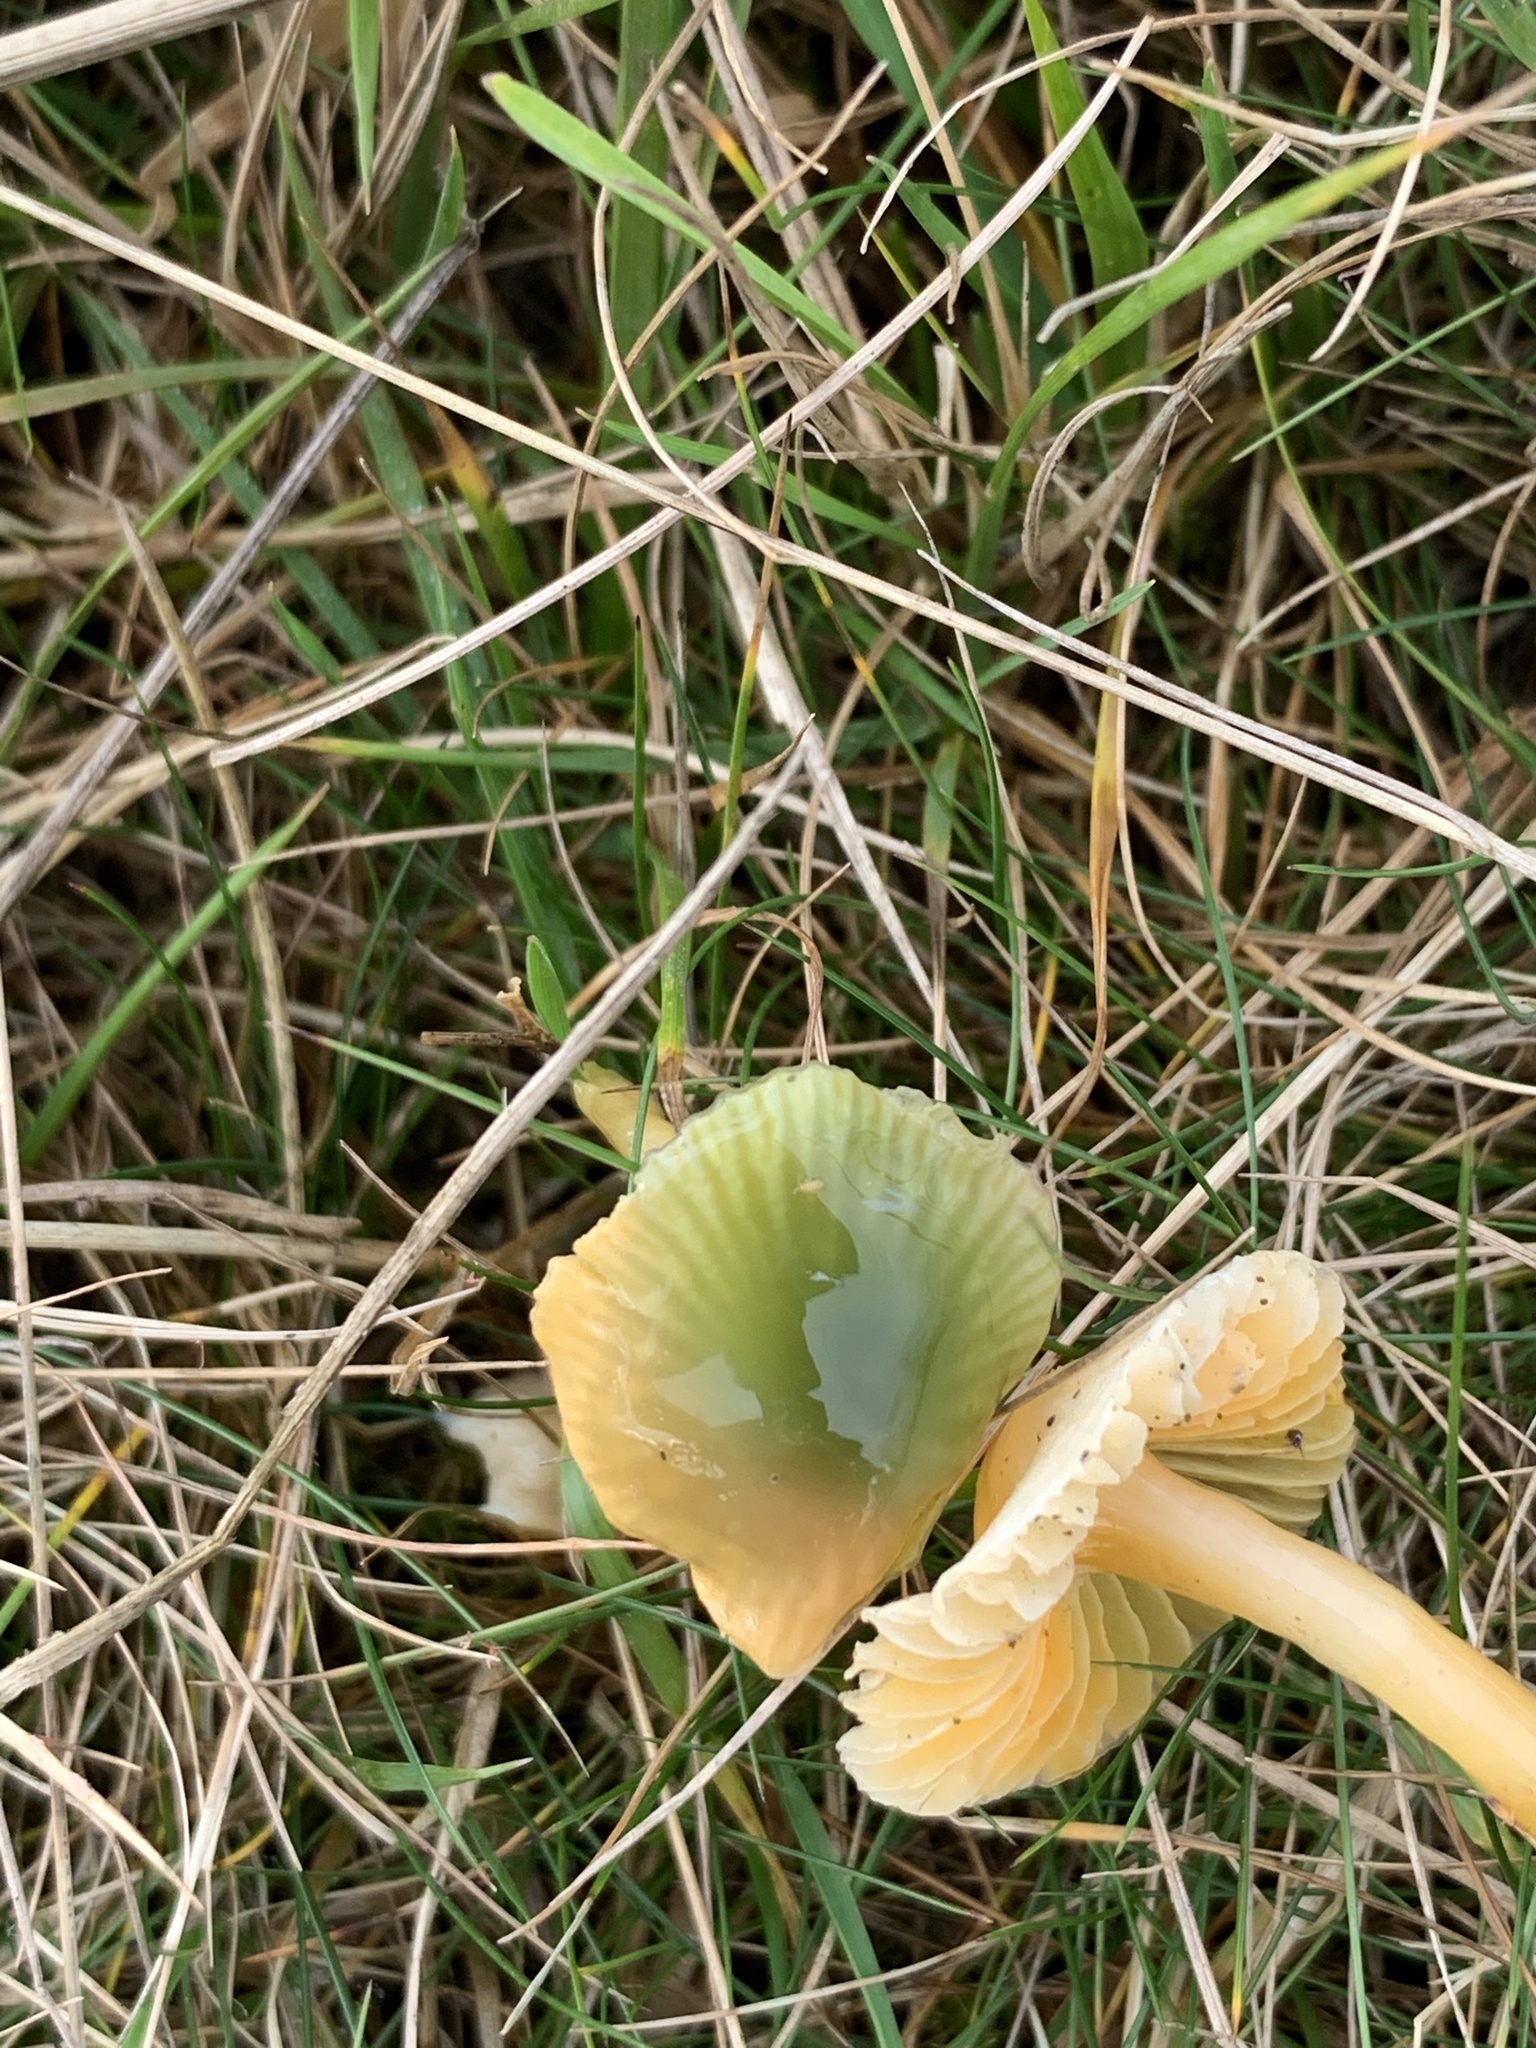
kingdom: Fungi
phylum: Basidiomycota
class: Agaricomycetes
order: Agaricales
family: Hygrophoraceae
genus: Gliophorus
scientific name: Gliophorus psittacinus
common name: Parrot wax-cap
